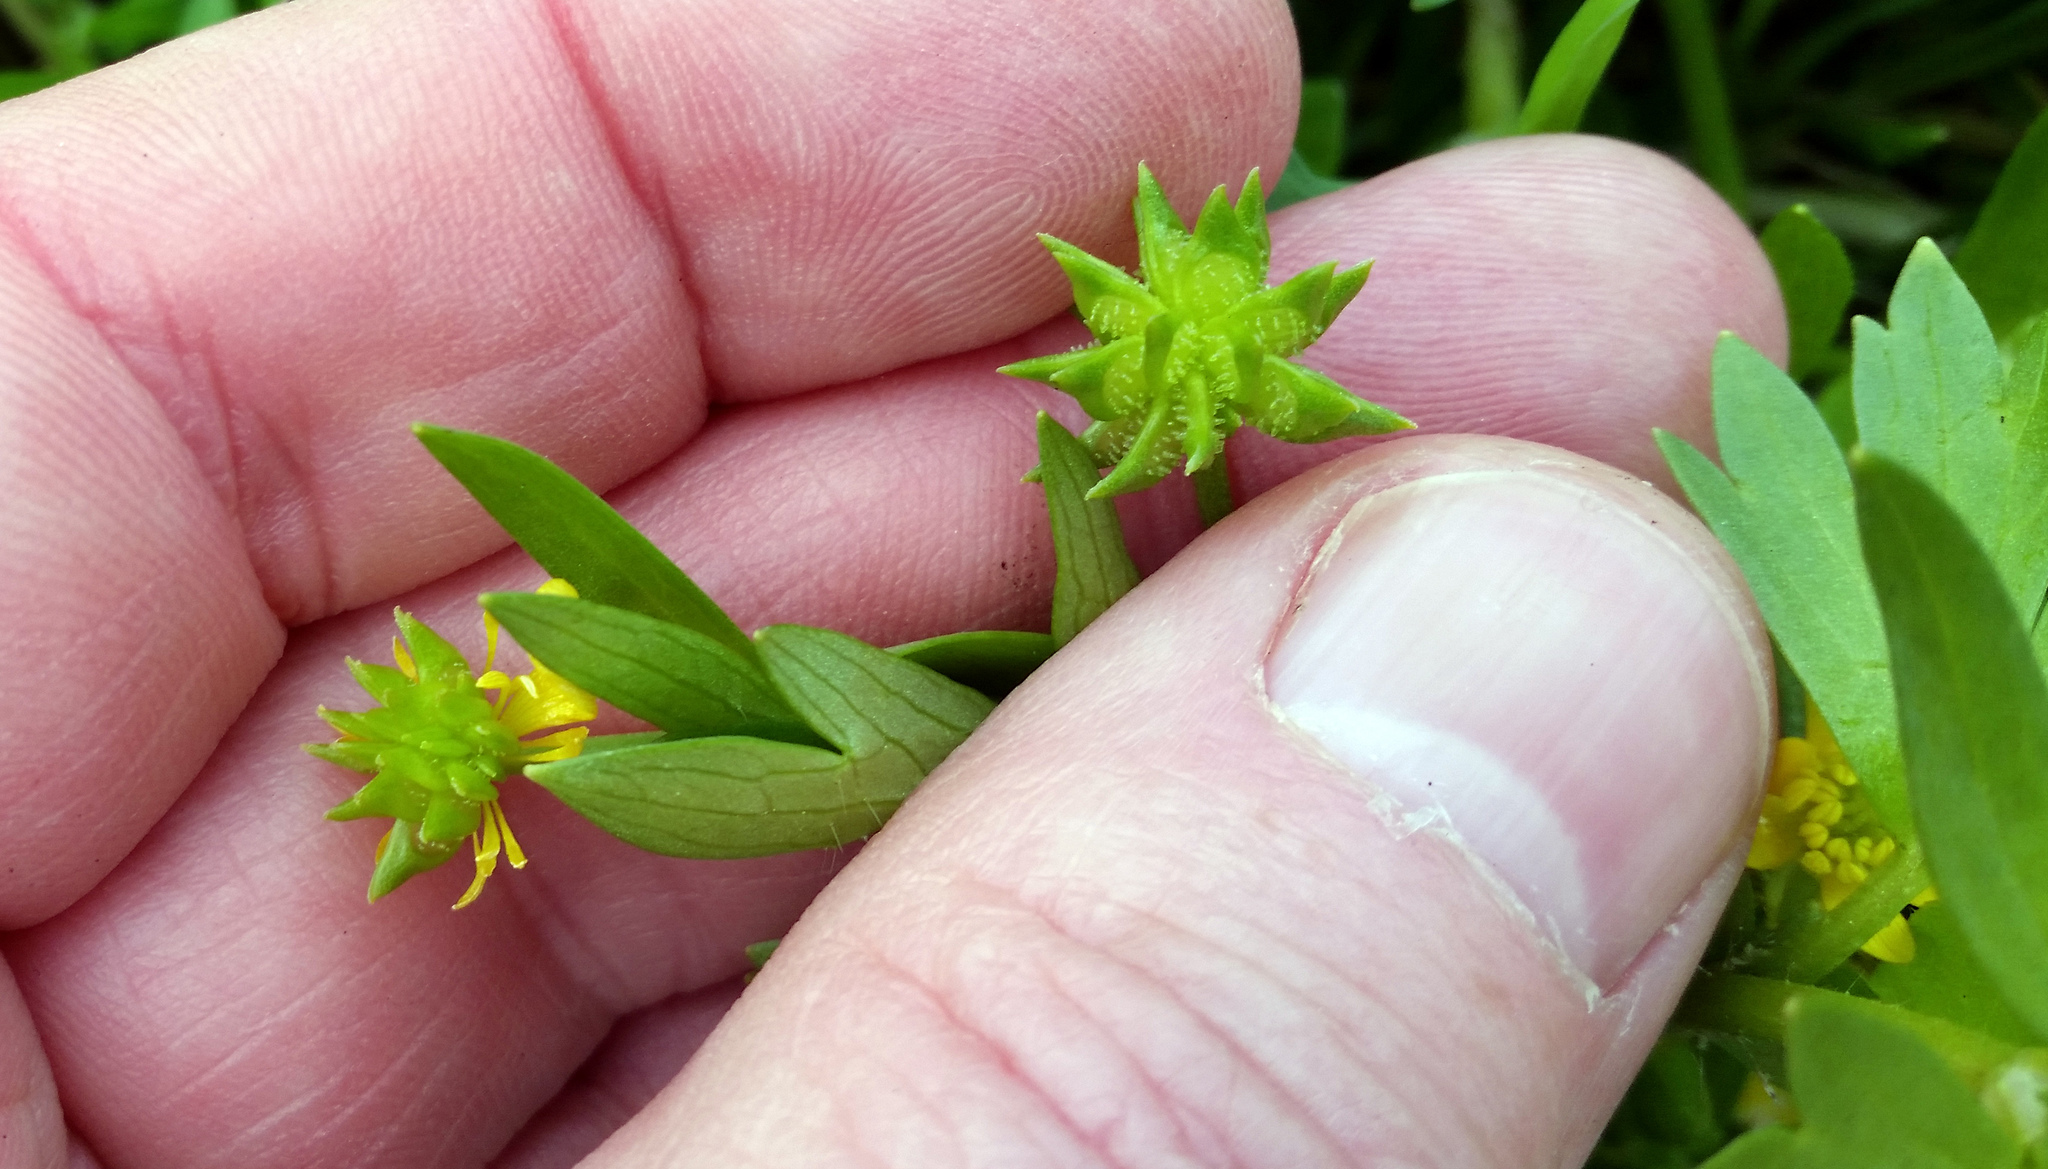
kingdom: Plantae
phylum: Tracheophyta
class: Magnoliopsida
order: Ranunculales
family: Ranunculaceae
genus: Ranunculus
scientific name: Ranunculus muricatus
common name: Rough-fruited buttercup
